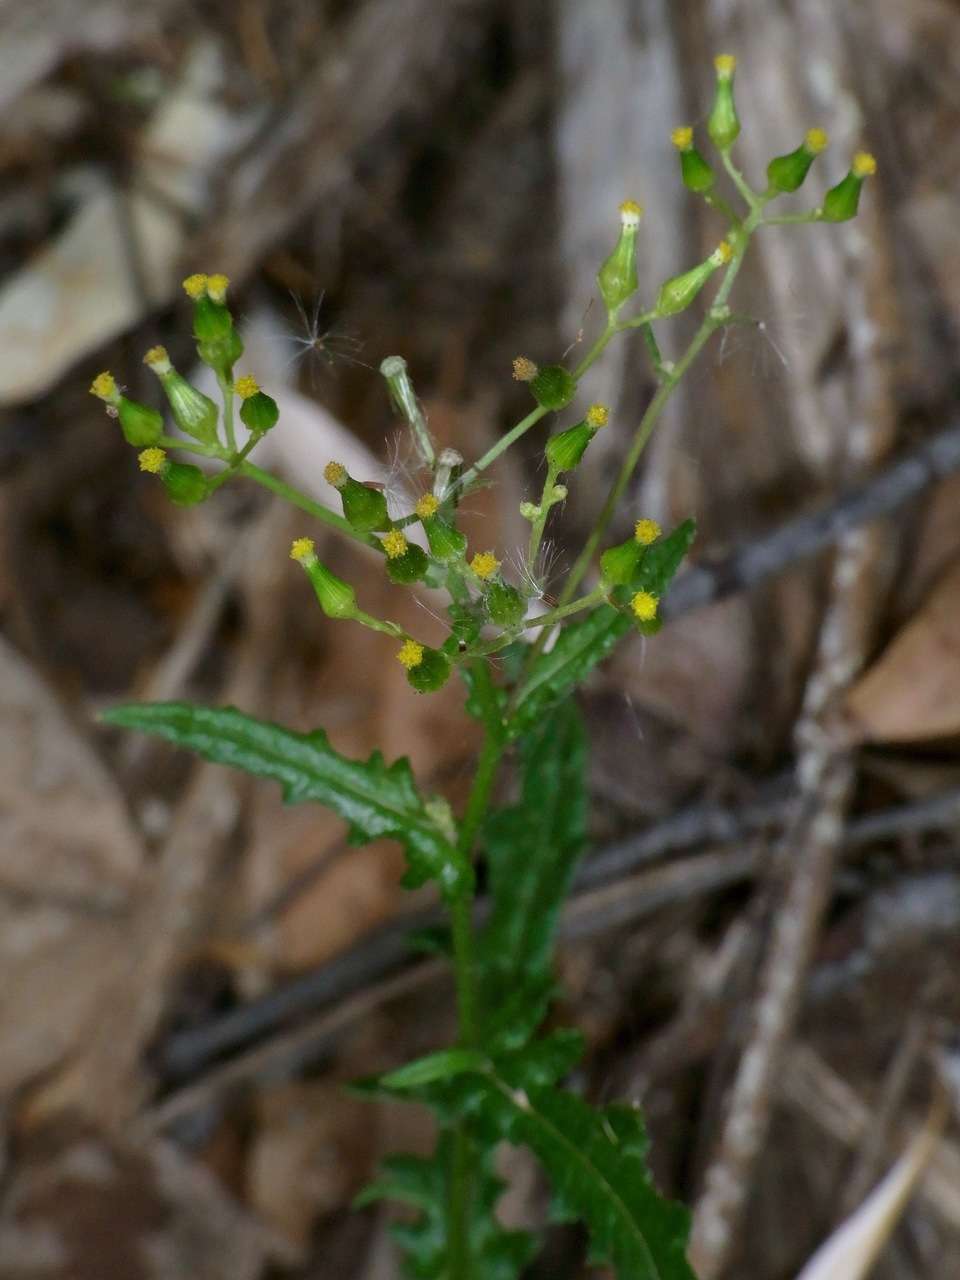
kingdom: Plantae
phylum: Tracheophyta
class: Magnoliopsida
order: Asterales
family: Asteraceae
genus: Senecio
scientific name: Senecio hispidulus
